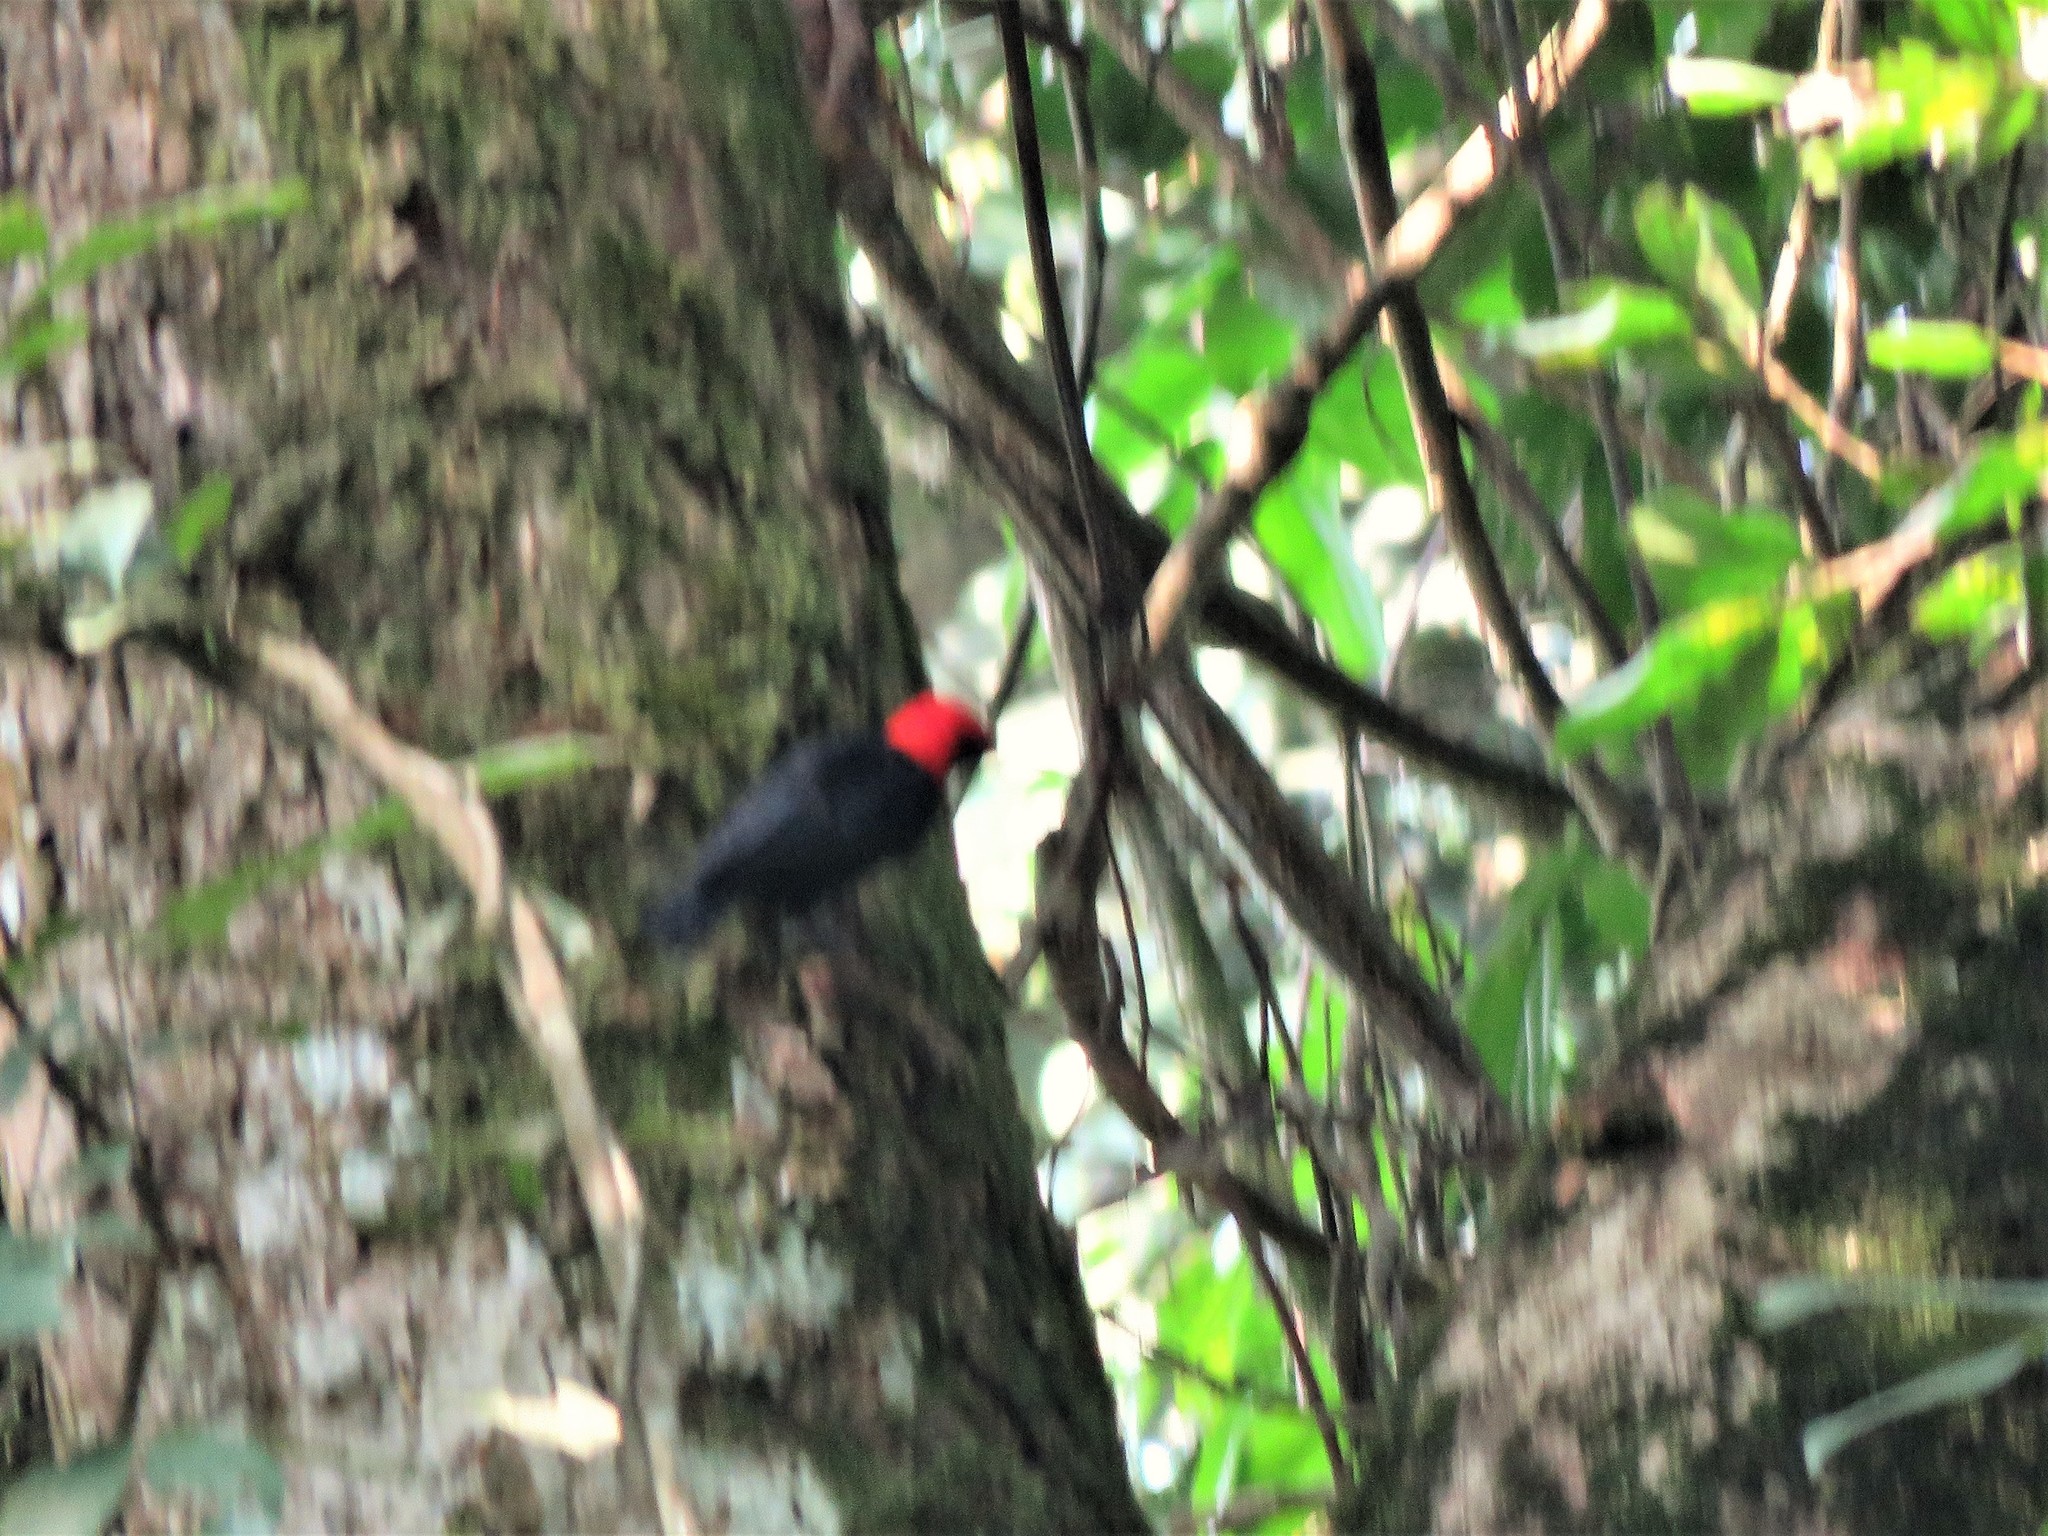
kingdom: Animalia
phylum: Chordata
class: Aves
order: Passeriformes
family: Ploceidae
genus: Malimbus
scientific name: Malimbus rubricollis
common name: Red-headed malimbe
